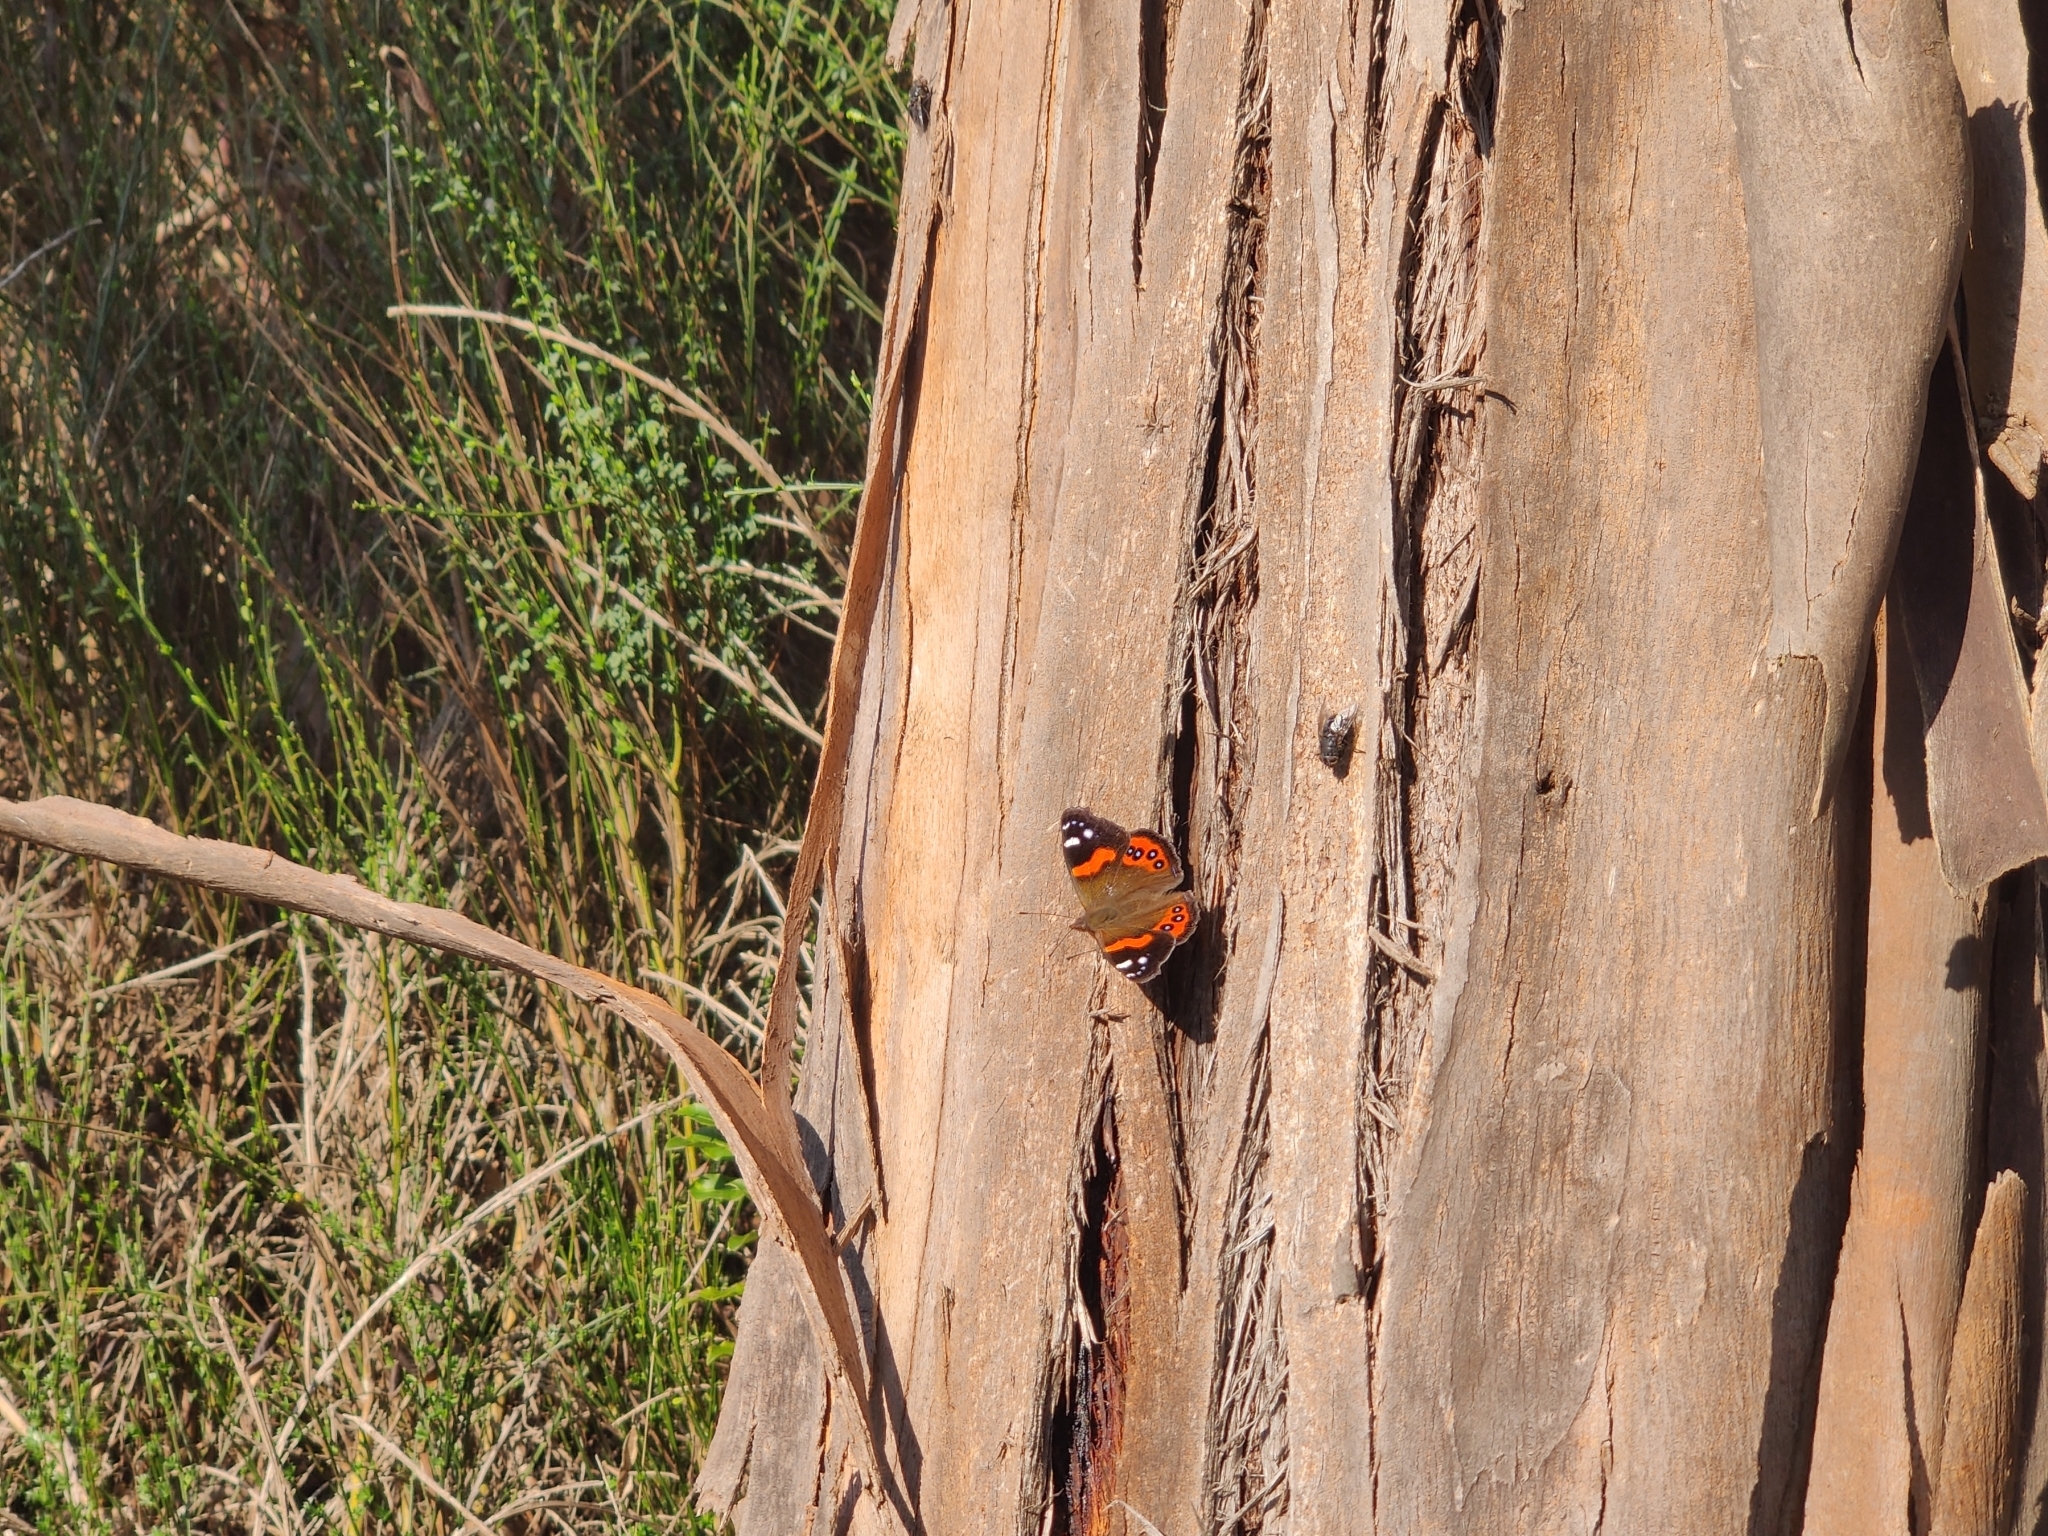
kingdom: Animalia
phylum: Arthropoda
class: Insecta
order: Lepidoptera
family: Nymphalidae
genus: Vanessa
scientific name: Vanessa gonerilla
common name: New zealand red admiral
